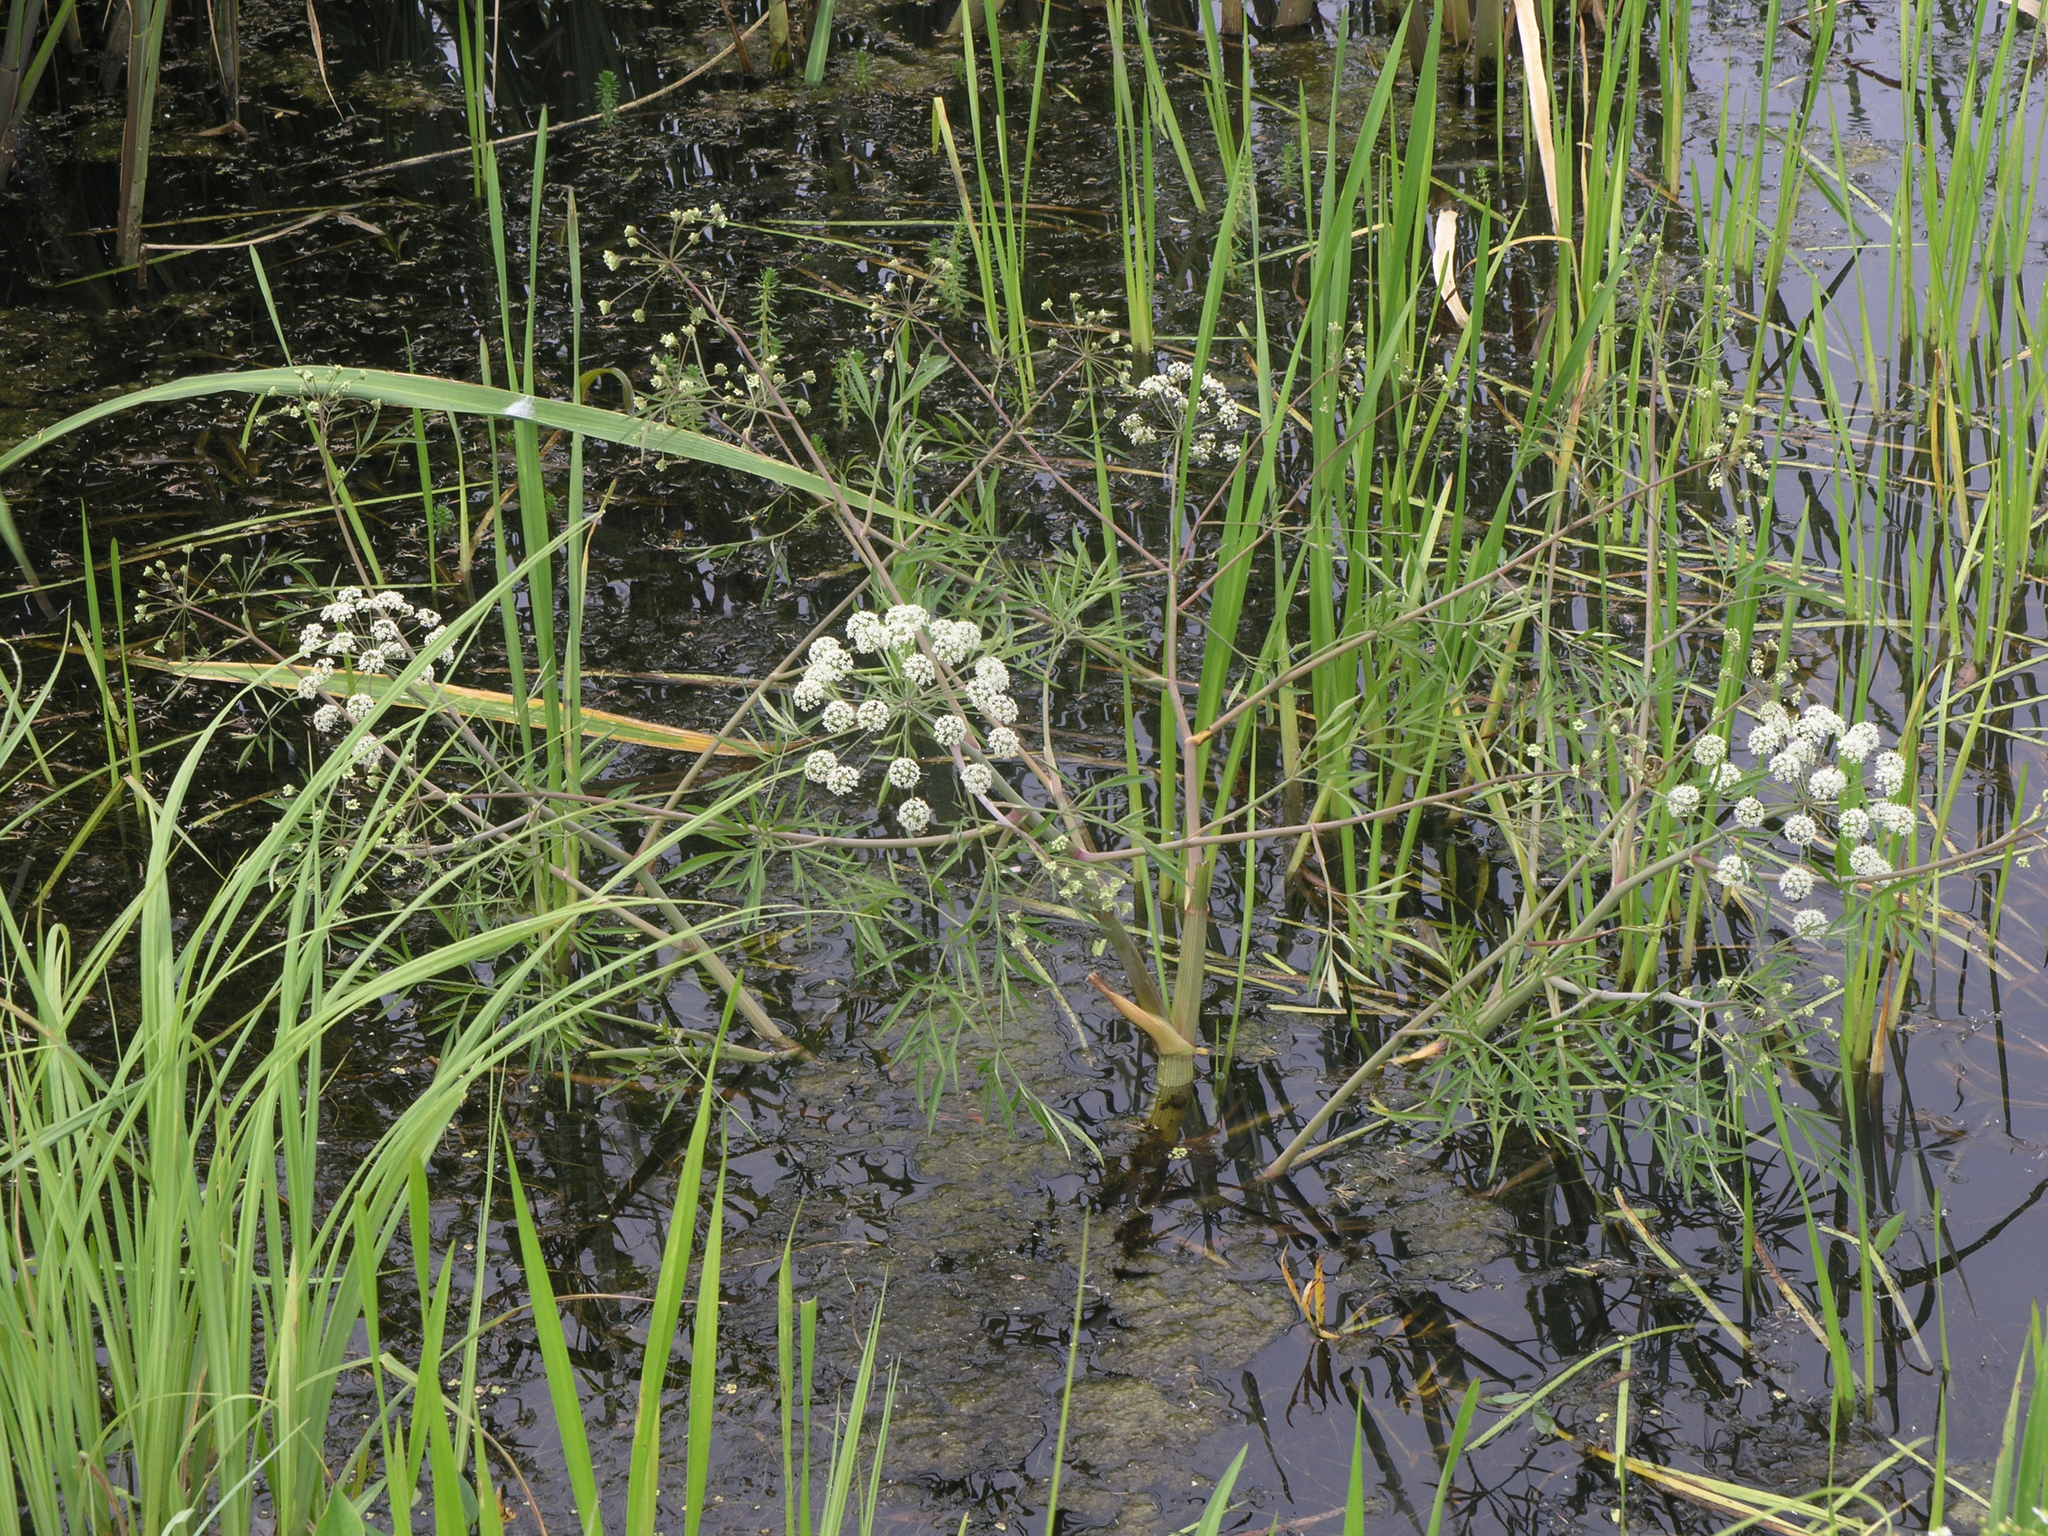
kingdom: Plantae
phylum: Tracheophyta
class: Magnoliopsida
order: Apiales
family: Apiaceae
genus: Cicuta
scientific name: Cicuta virosa
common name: Cowbane
